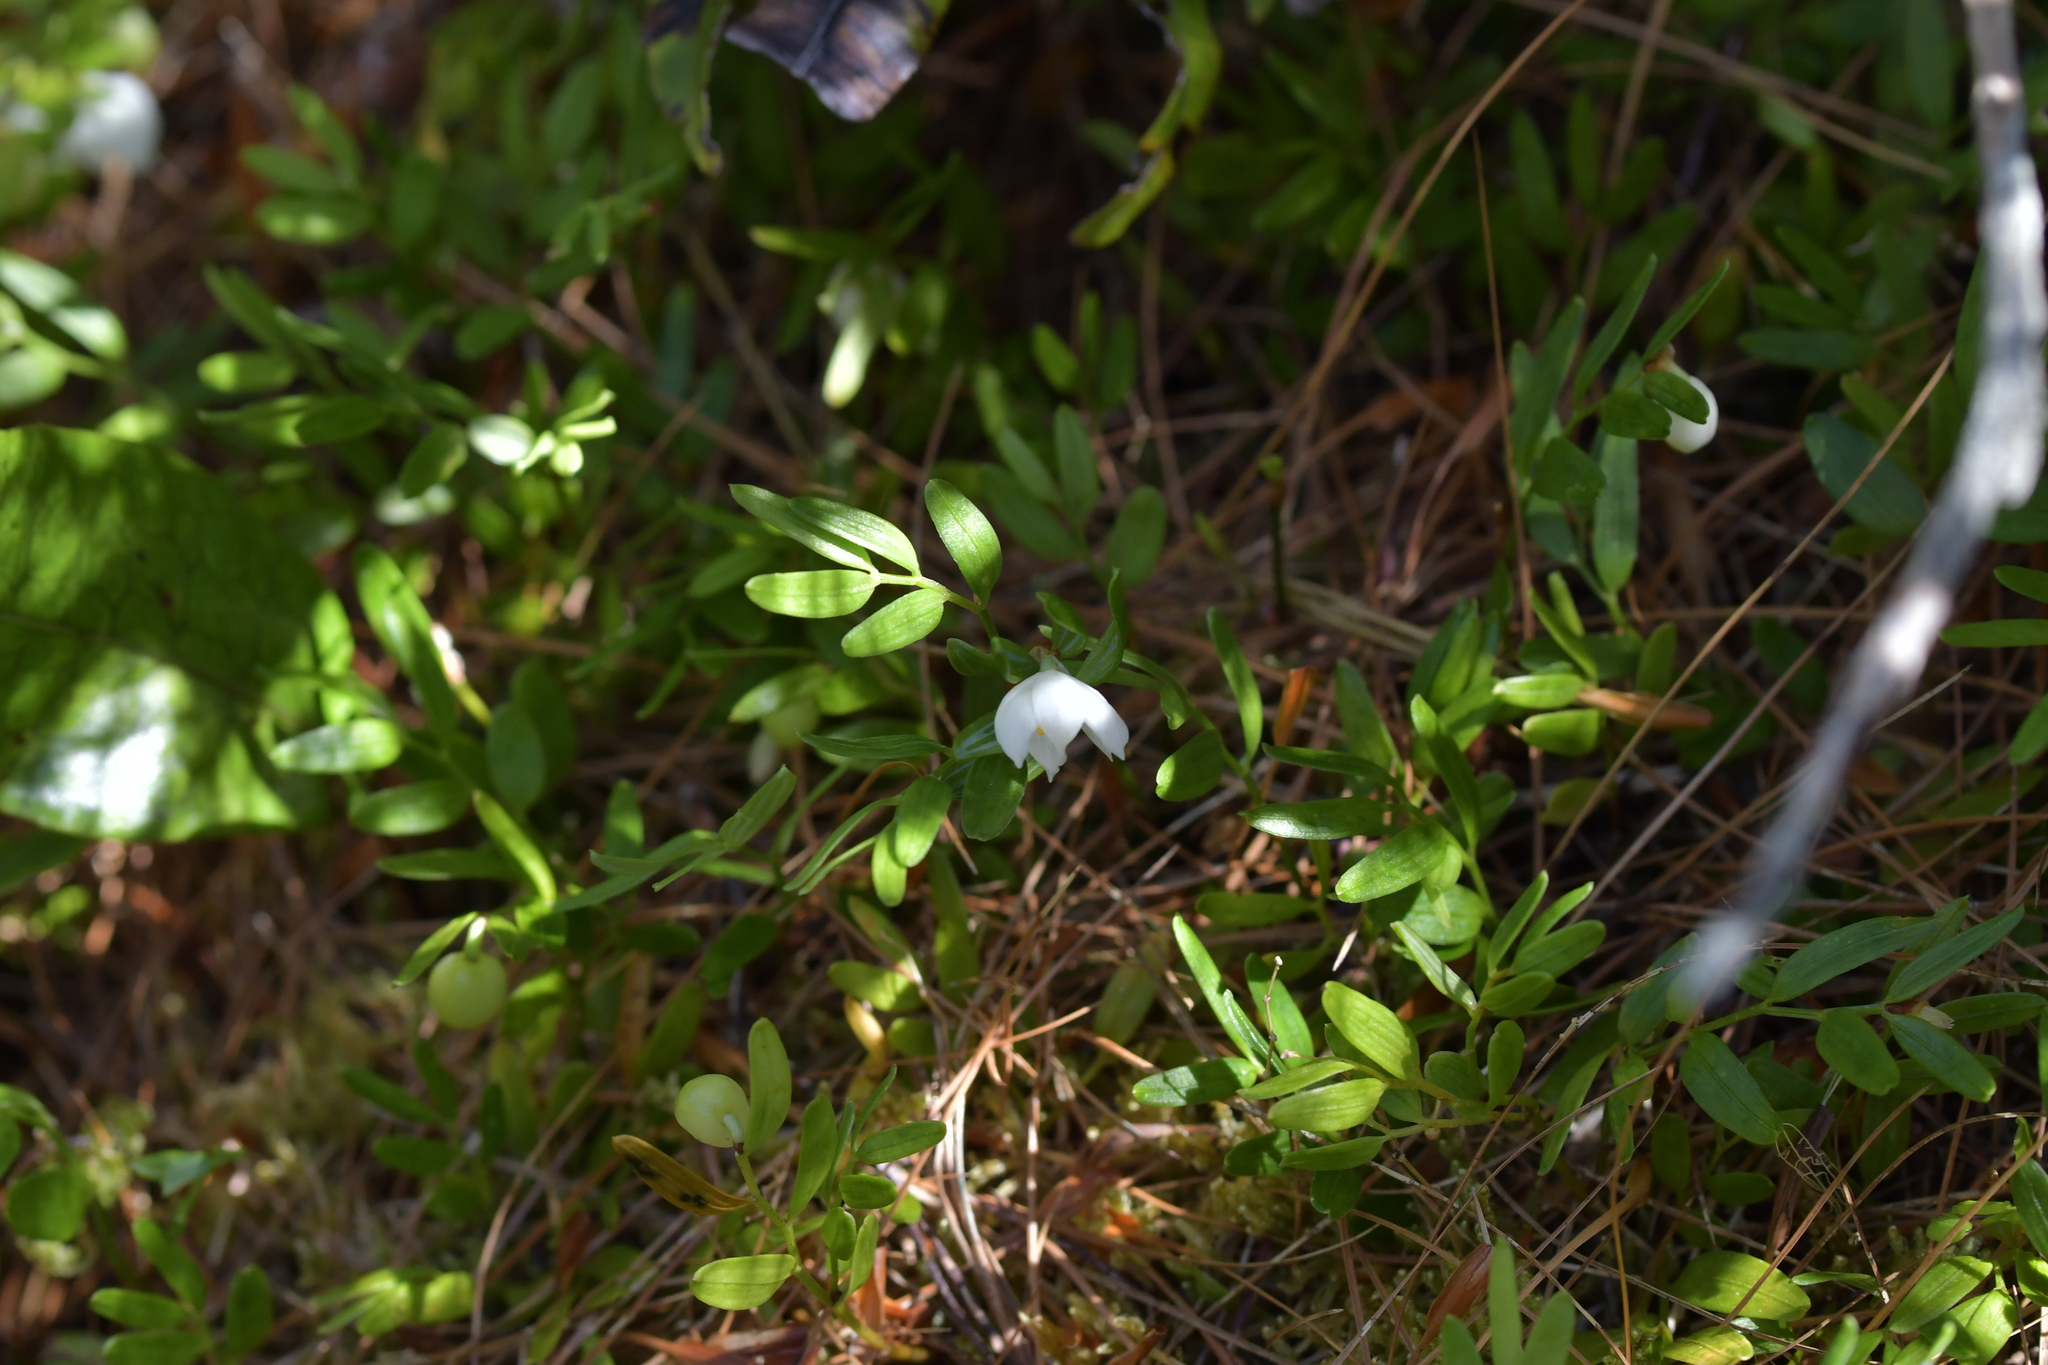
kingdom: Plantae
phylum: Tracheophyta
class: Liliopsida
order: Liliales
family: Alstroemeriaceae
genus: Luzuriaga
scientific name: Luzuriaga parviflora
